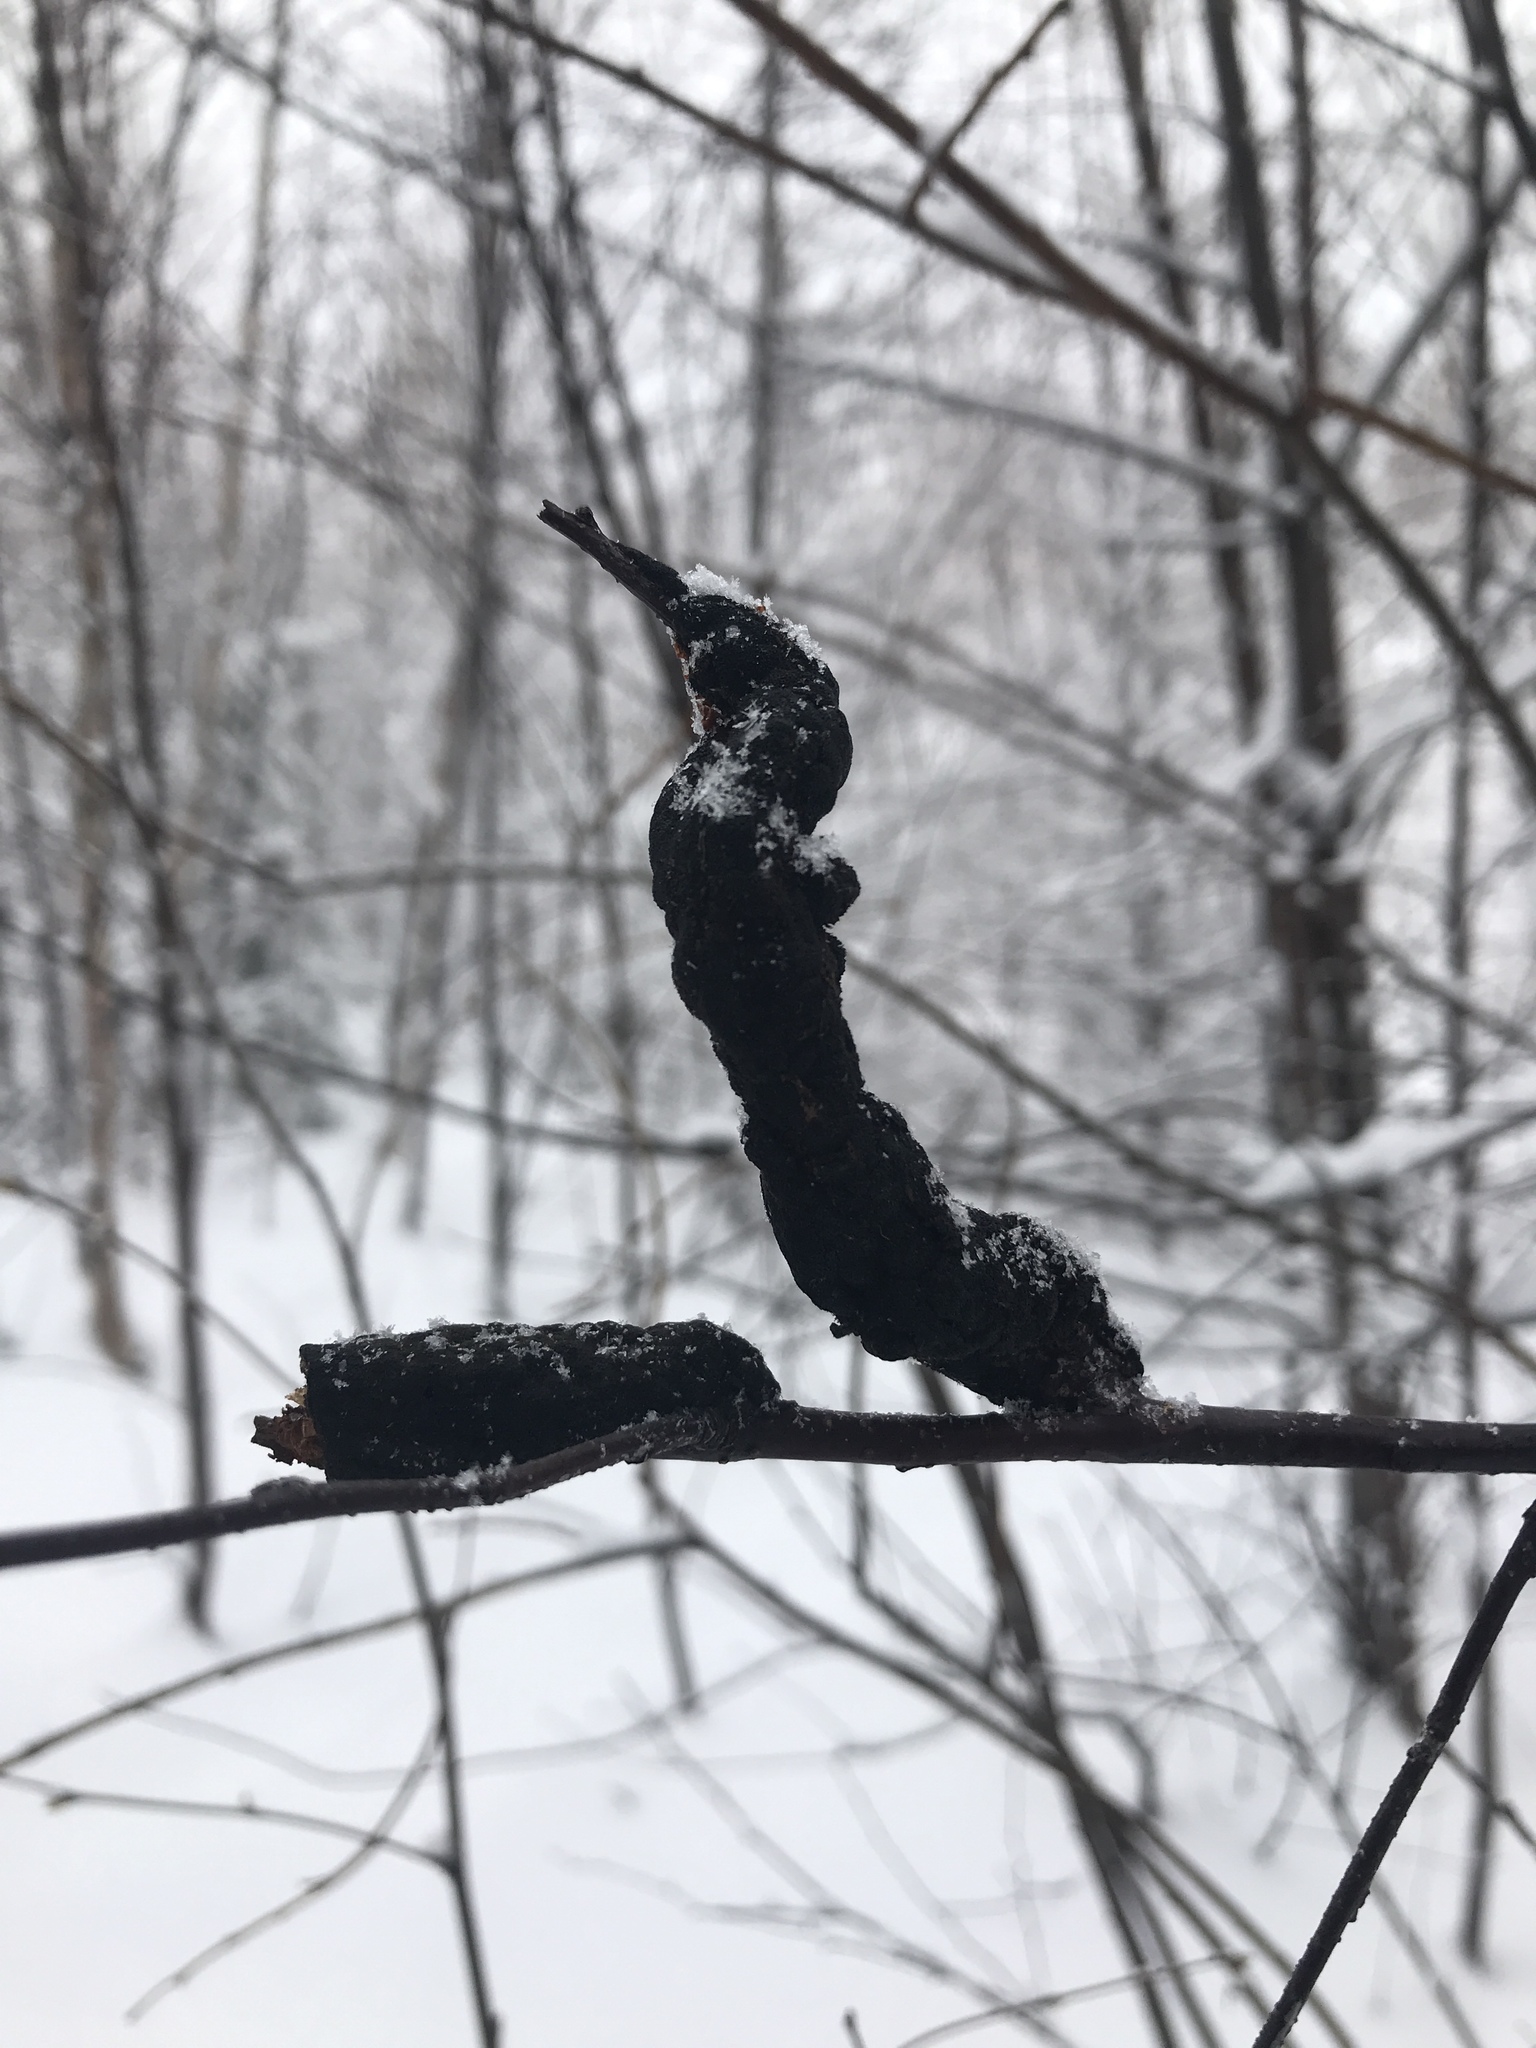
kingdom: Fungi
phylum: Ascomycota
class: Dothideomycetes
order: Venturiales
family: Venturiaceae
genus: Apiosporina
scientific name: Apiosporina morbosa
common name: Black knot
